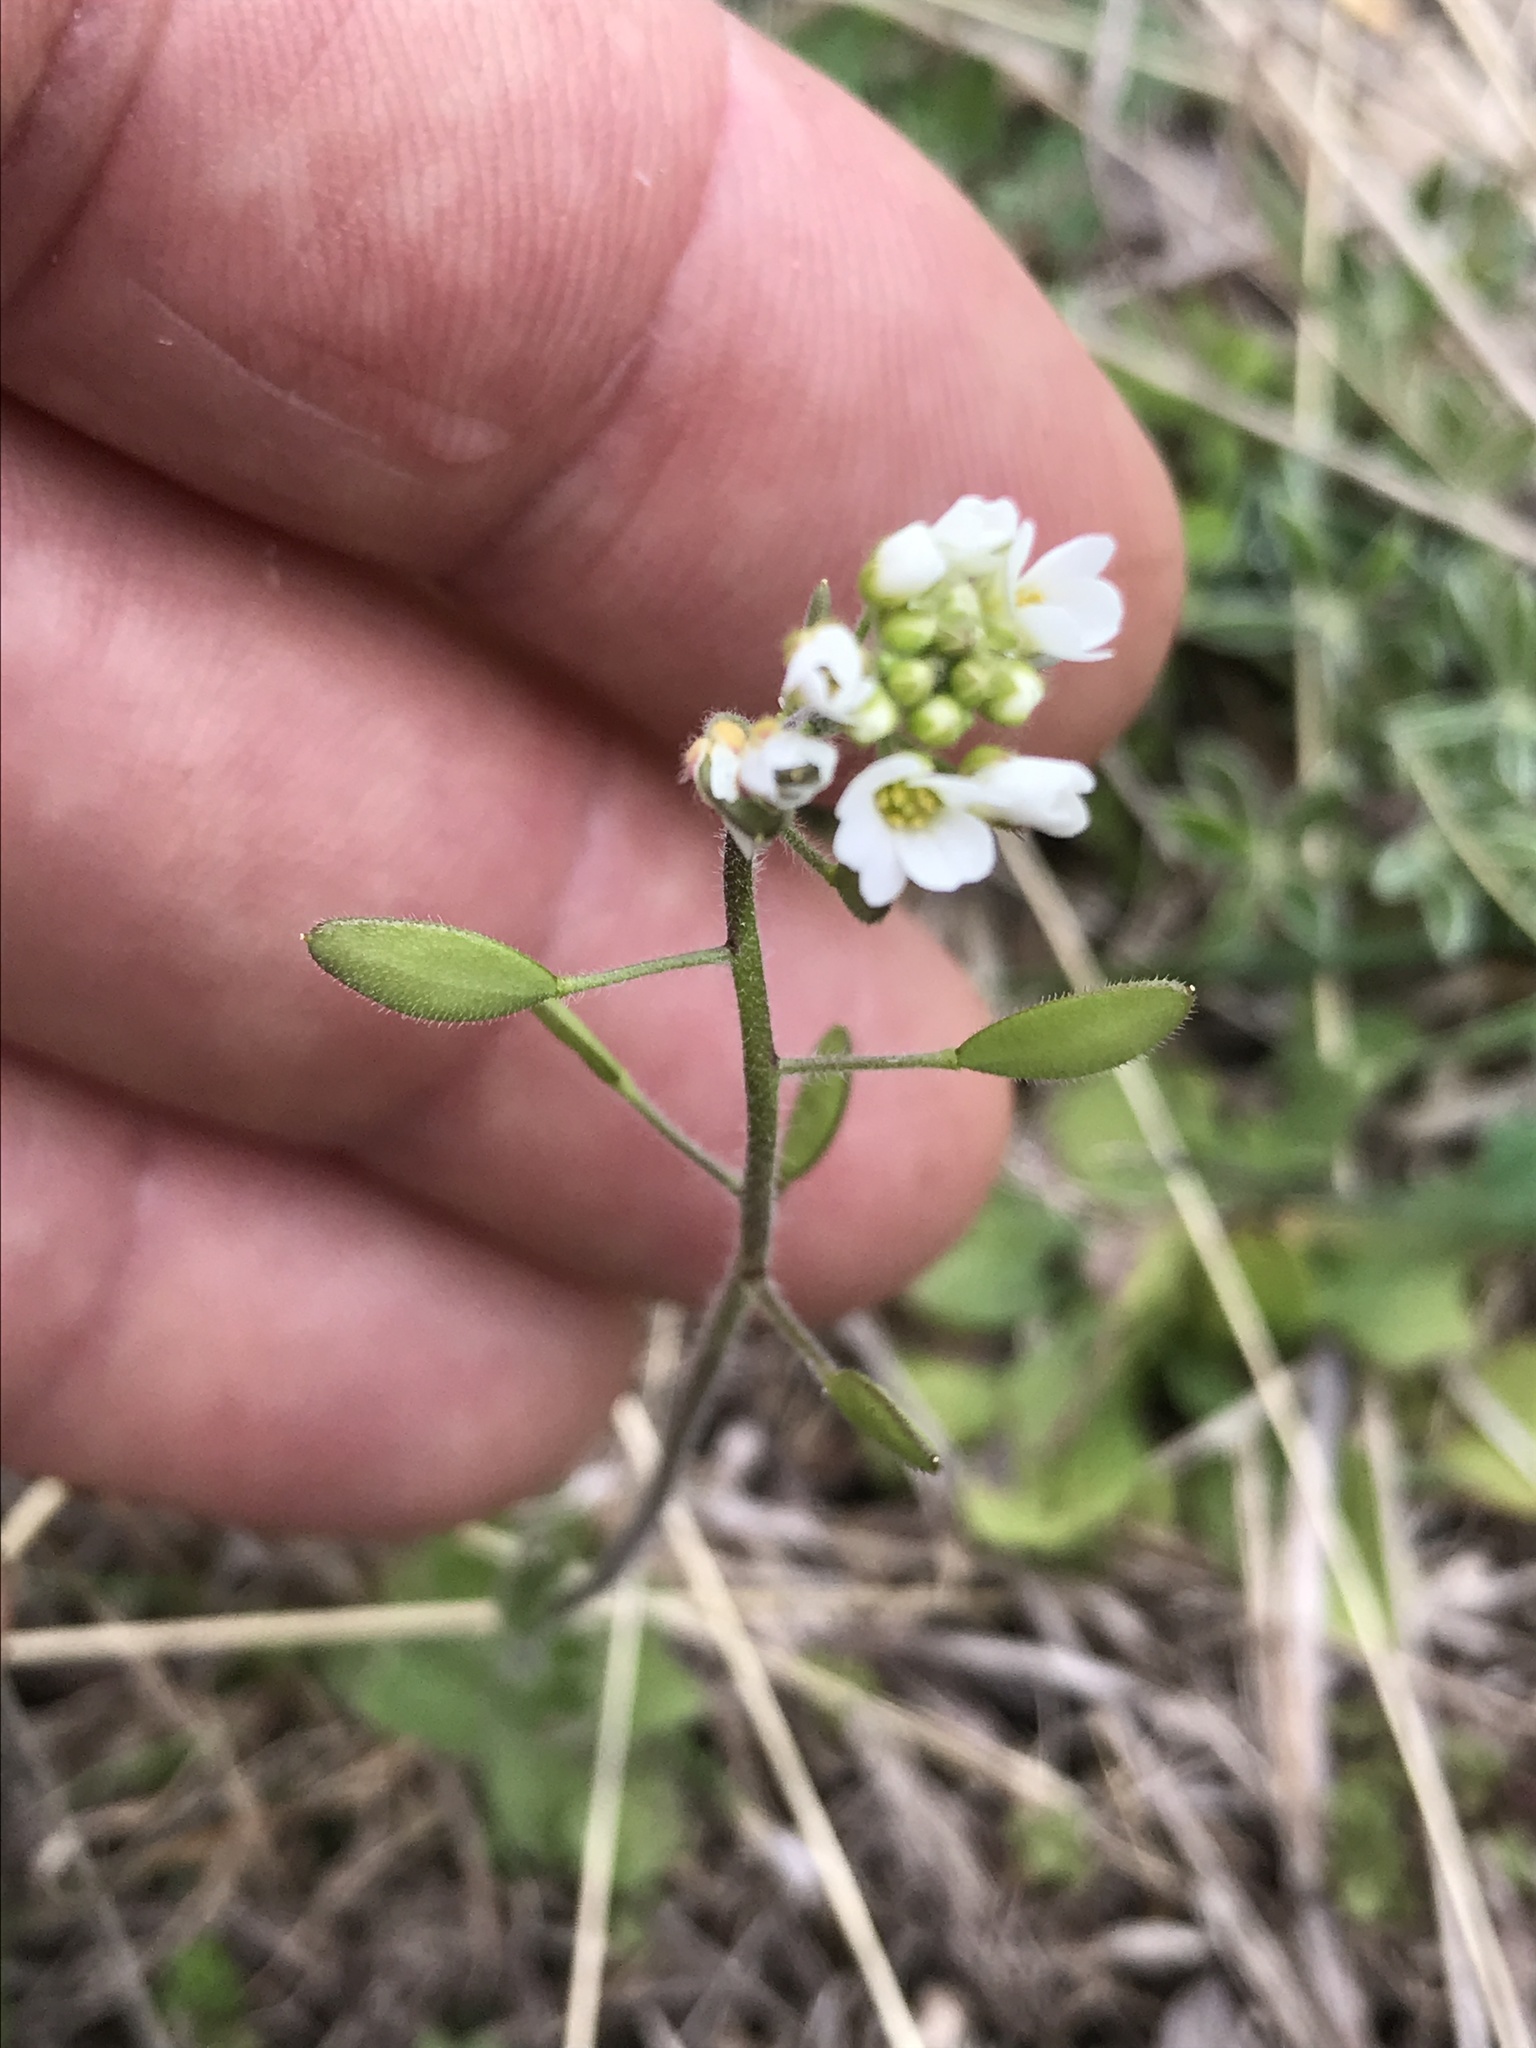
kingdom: Plantae
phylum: Tracheophyta
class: Magnoliopsida
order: Brassicales
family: Brassicaceae
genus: Tomostima
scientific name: Tomostima platycarpa
